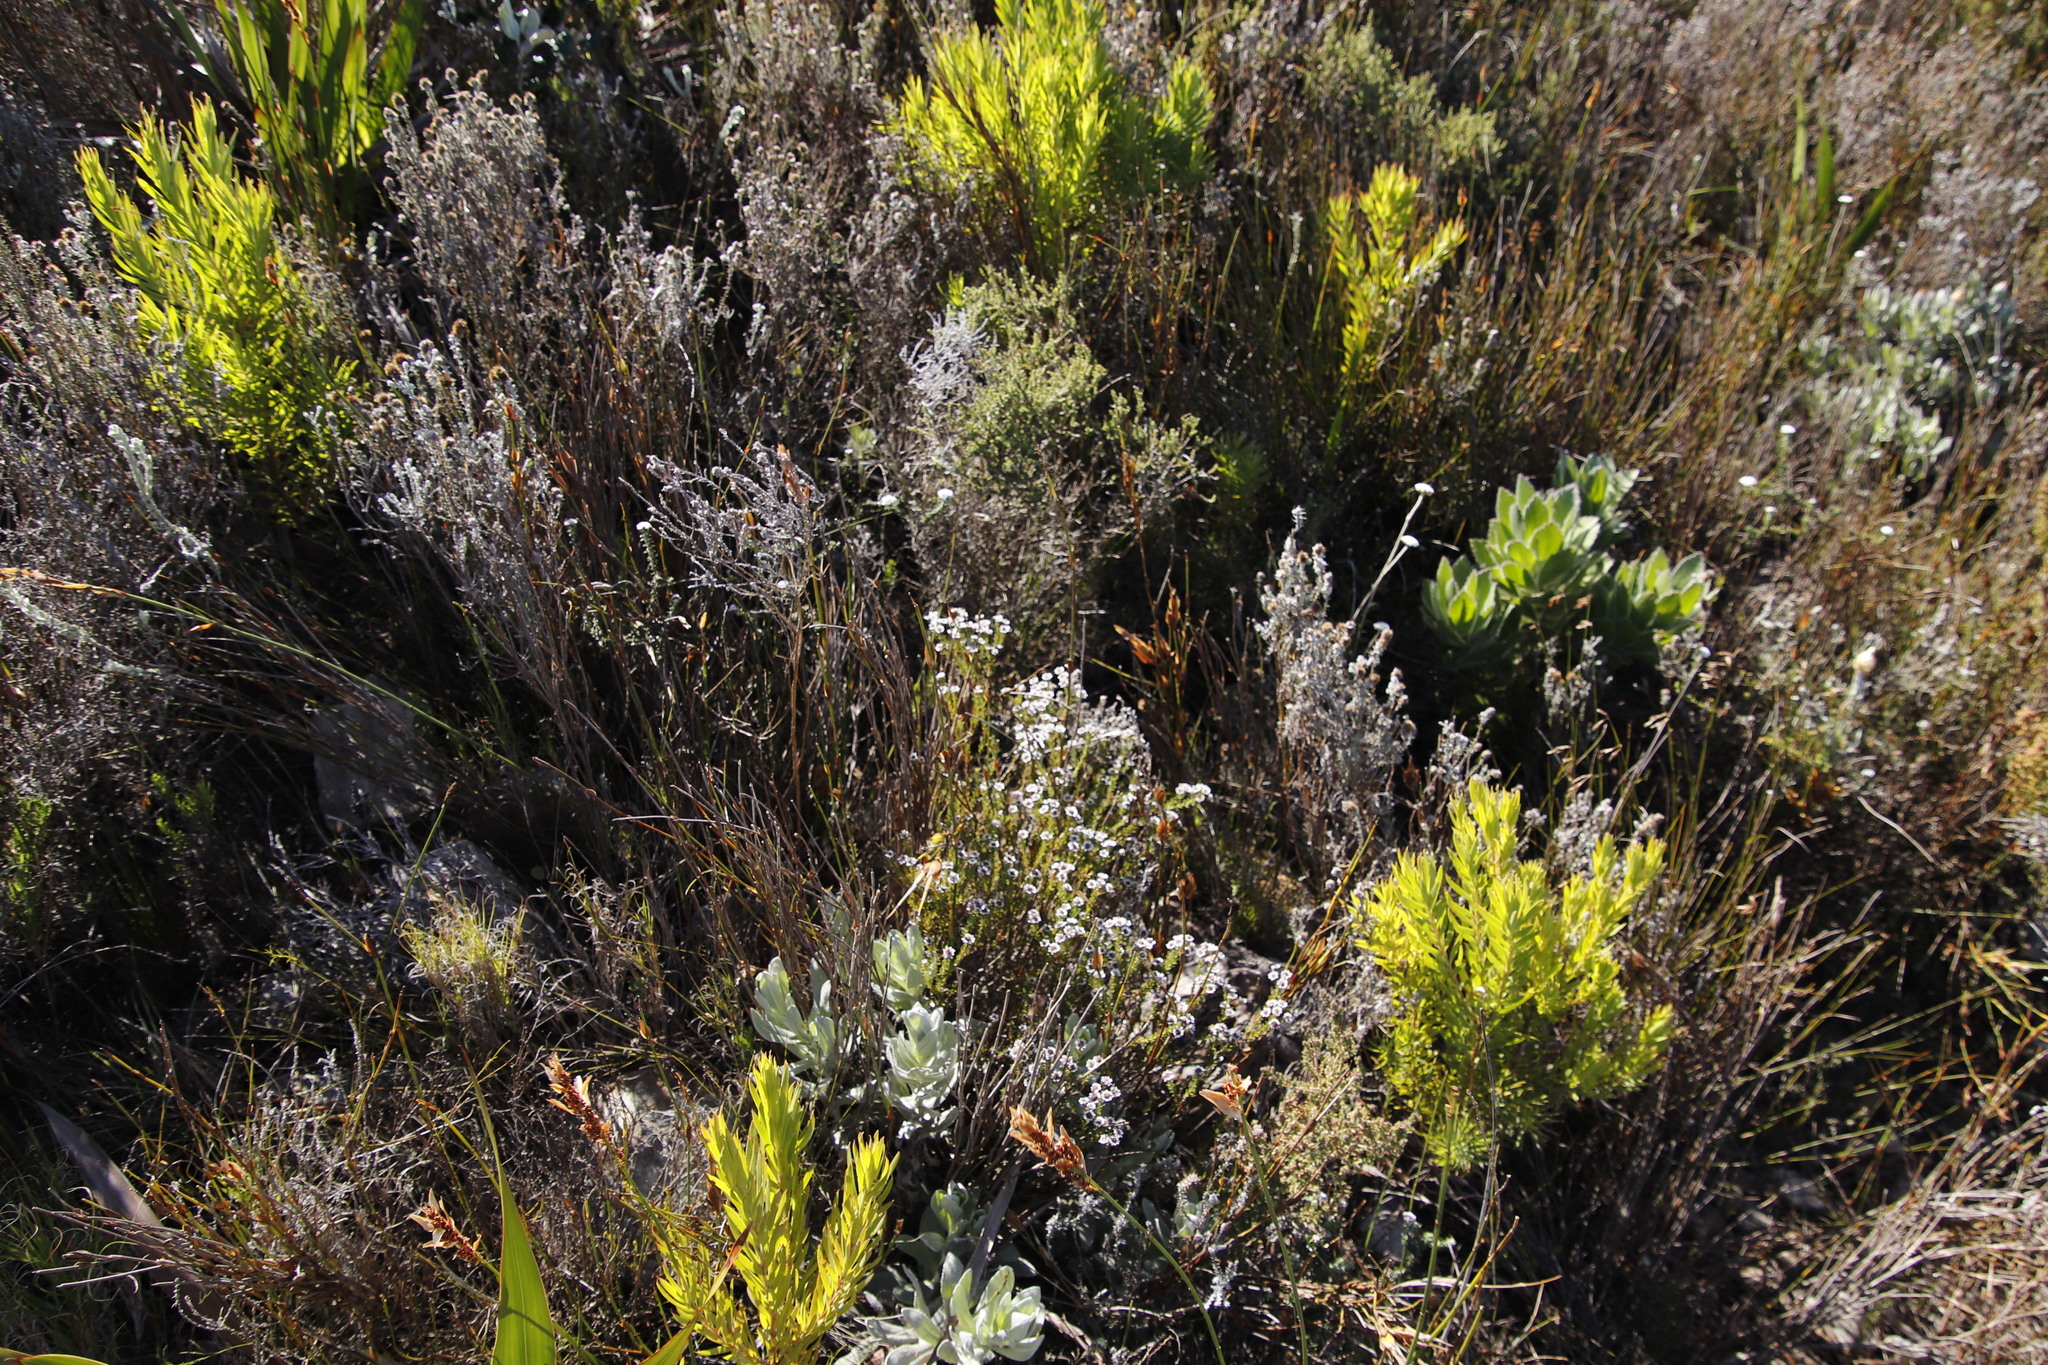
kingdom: Plantae
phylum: Tracheophyta
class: Magnoliopsida
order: Bruniales
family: Bruniaceae
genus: Staavia
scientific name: Staavia radiata
